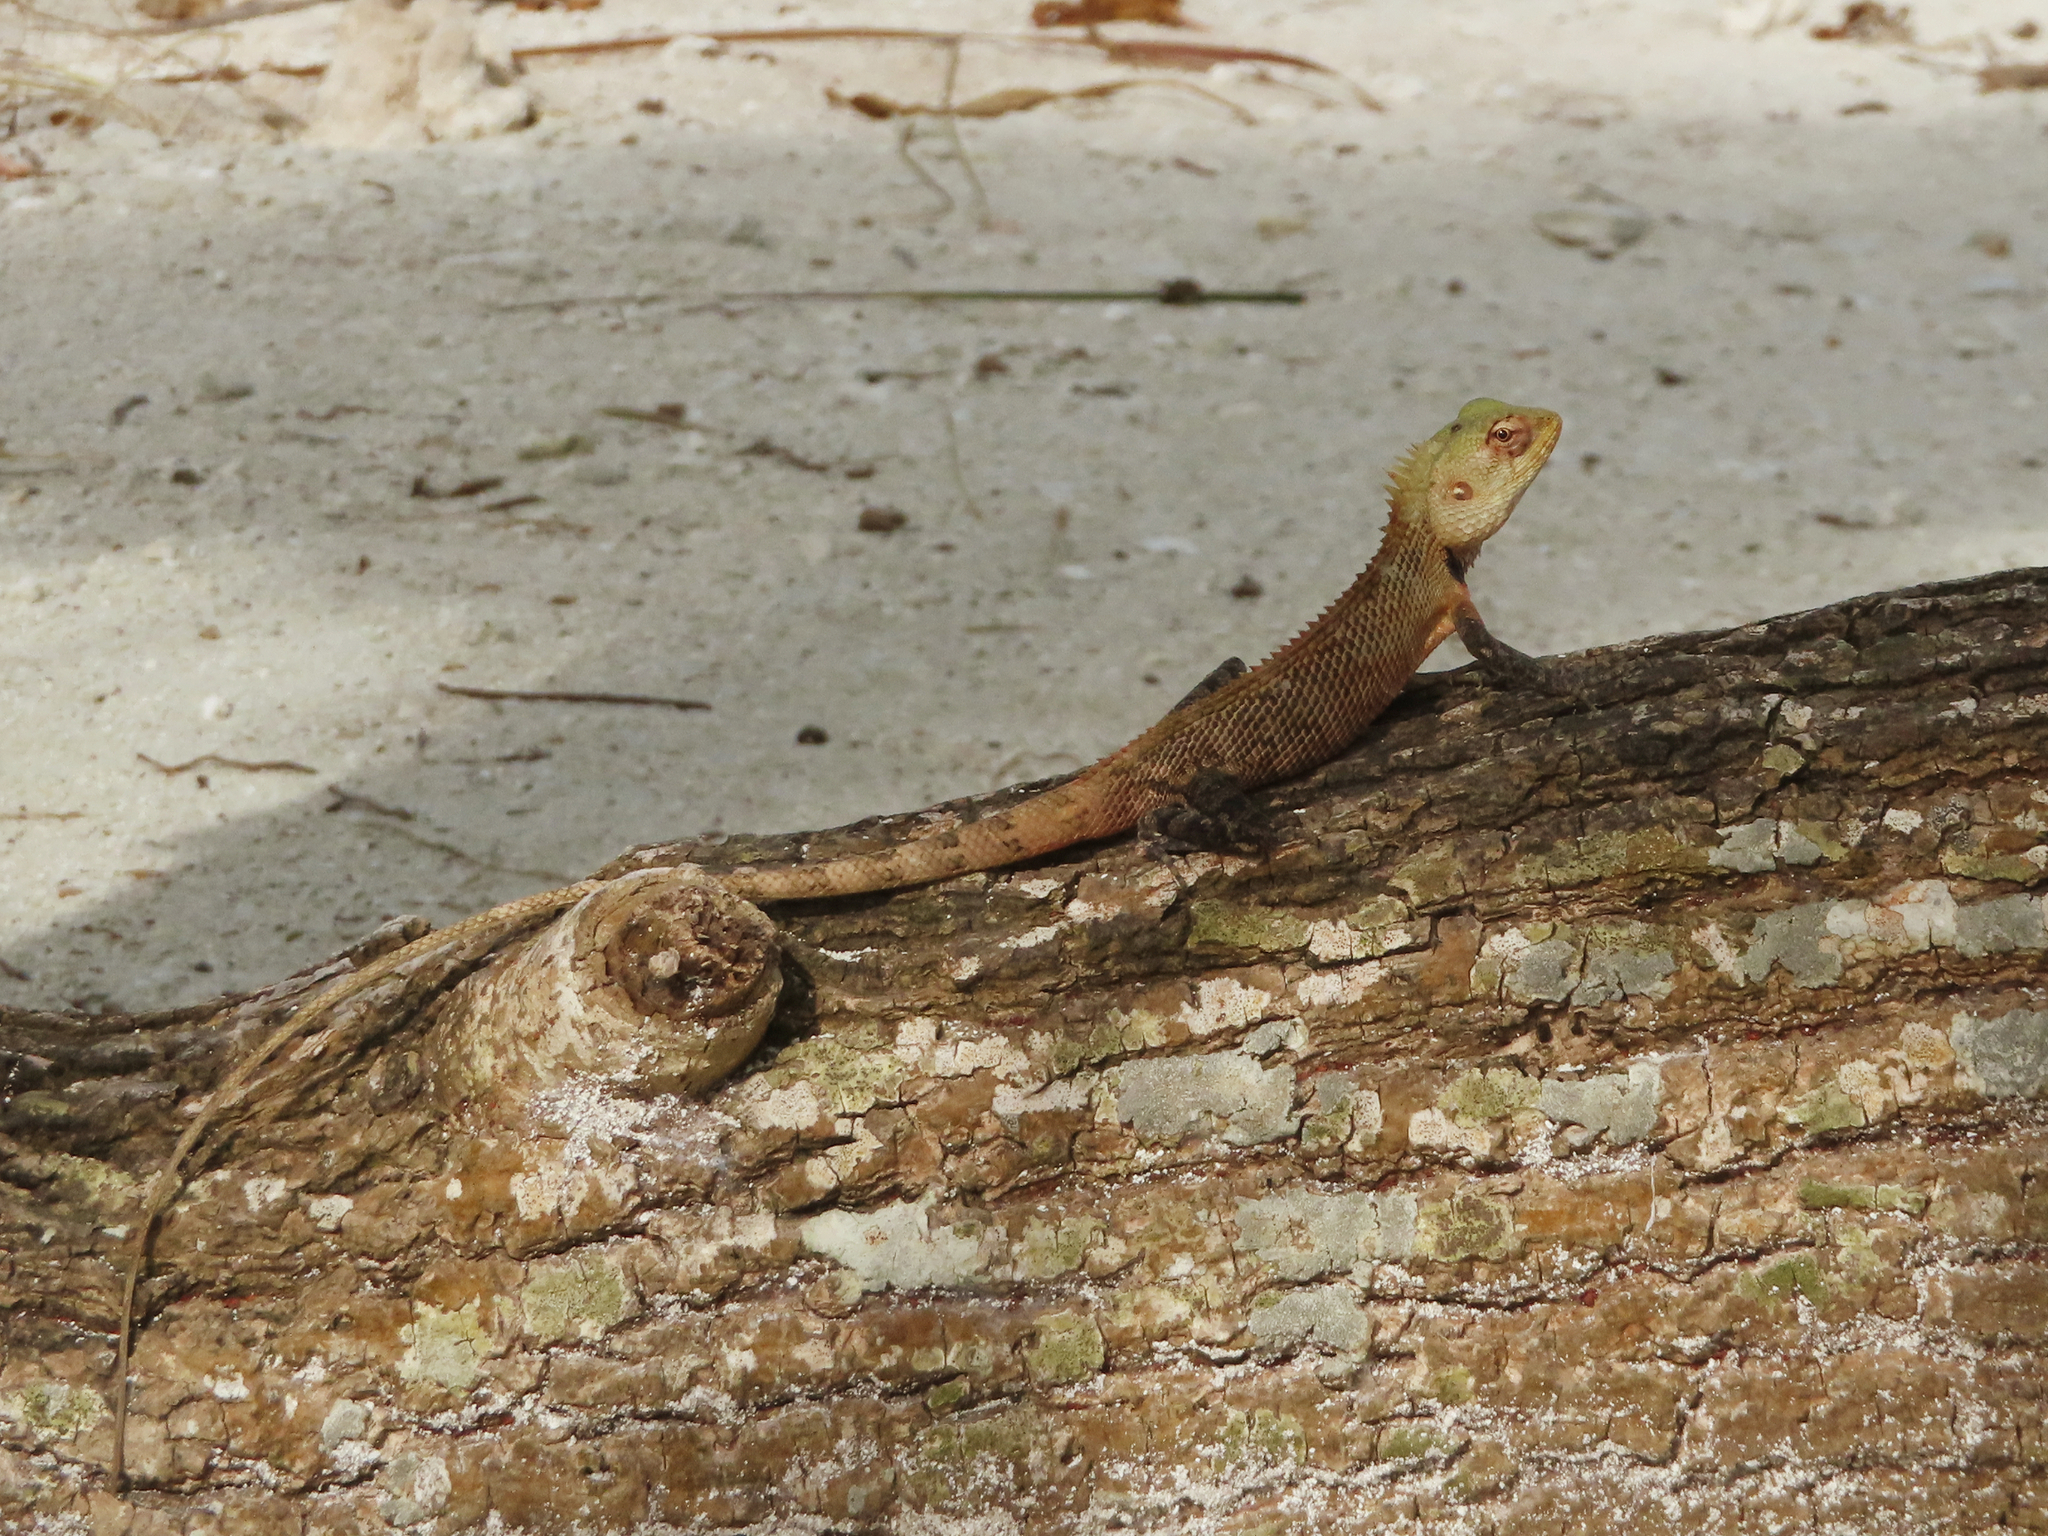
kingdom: Animalia
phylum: Chordata
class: Squamata
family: Agamidae
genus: Calotes
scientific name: Calotes versicolor
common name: Oriental garden lizard
